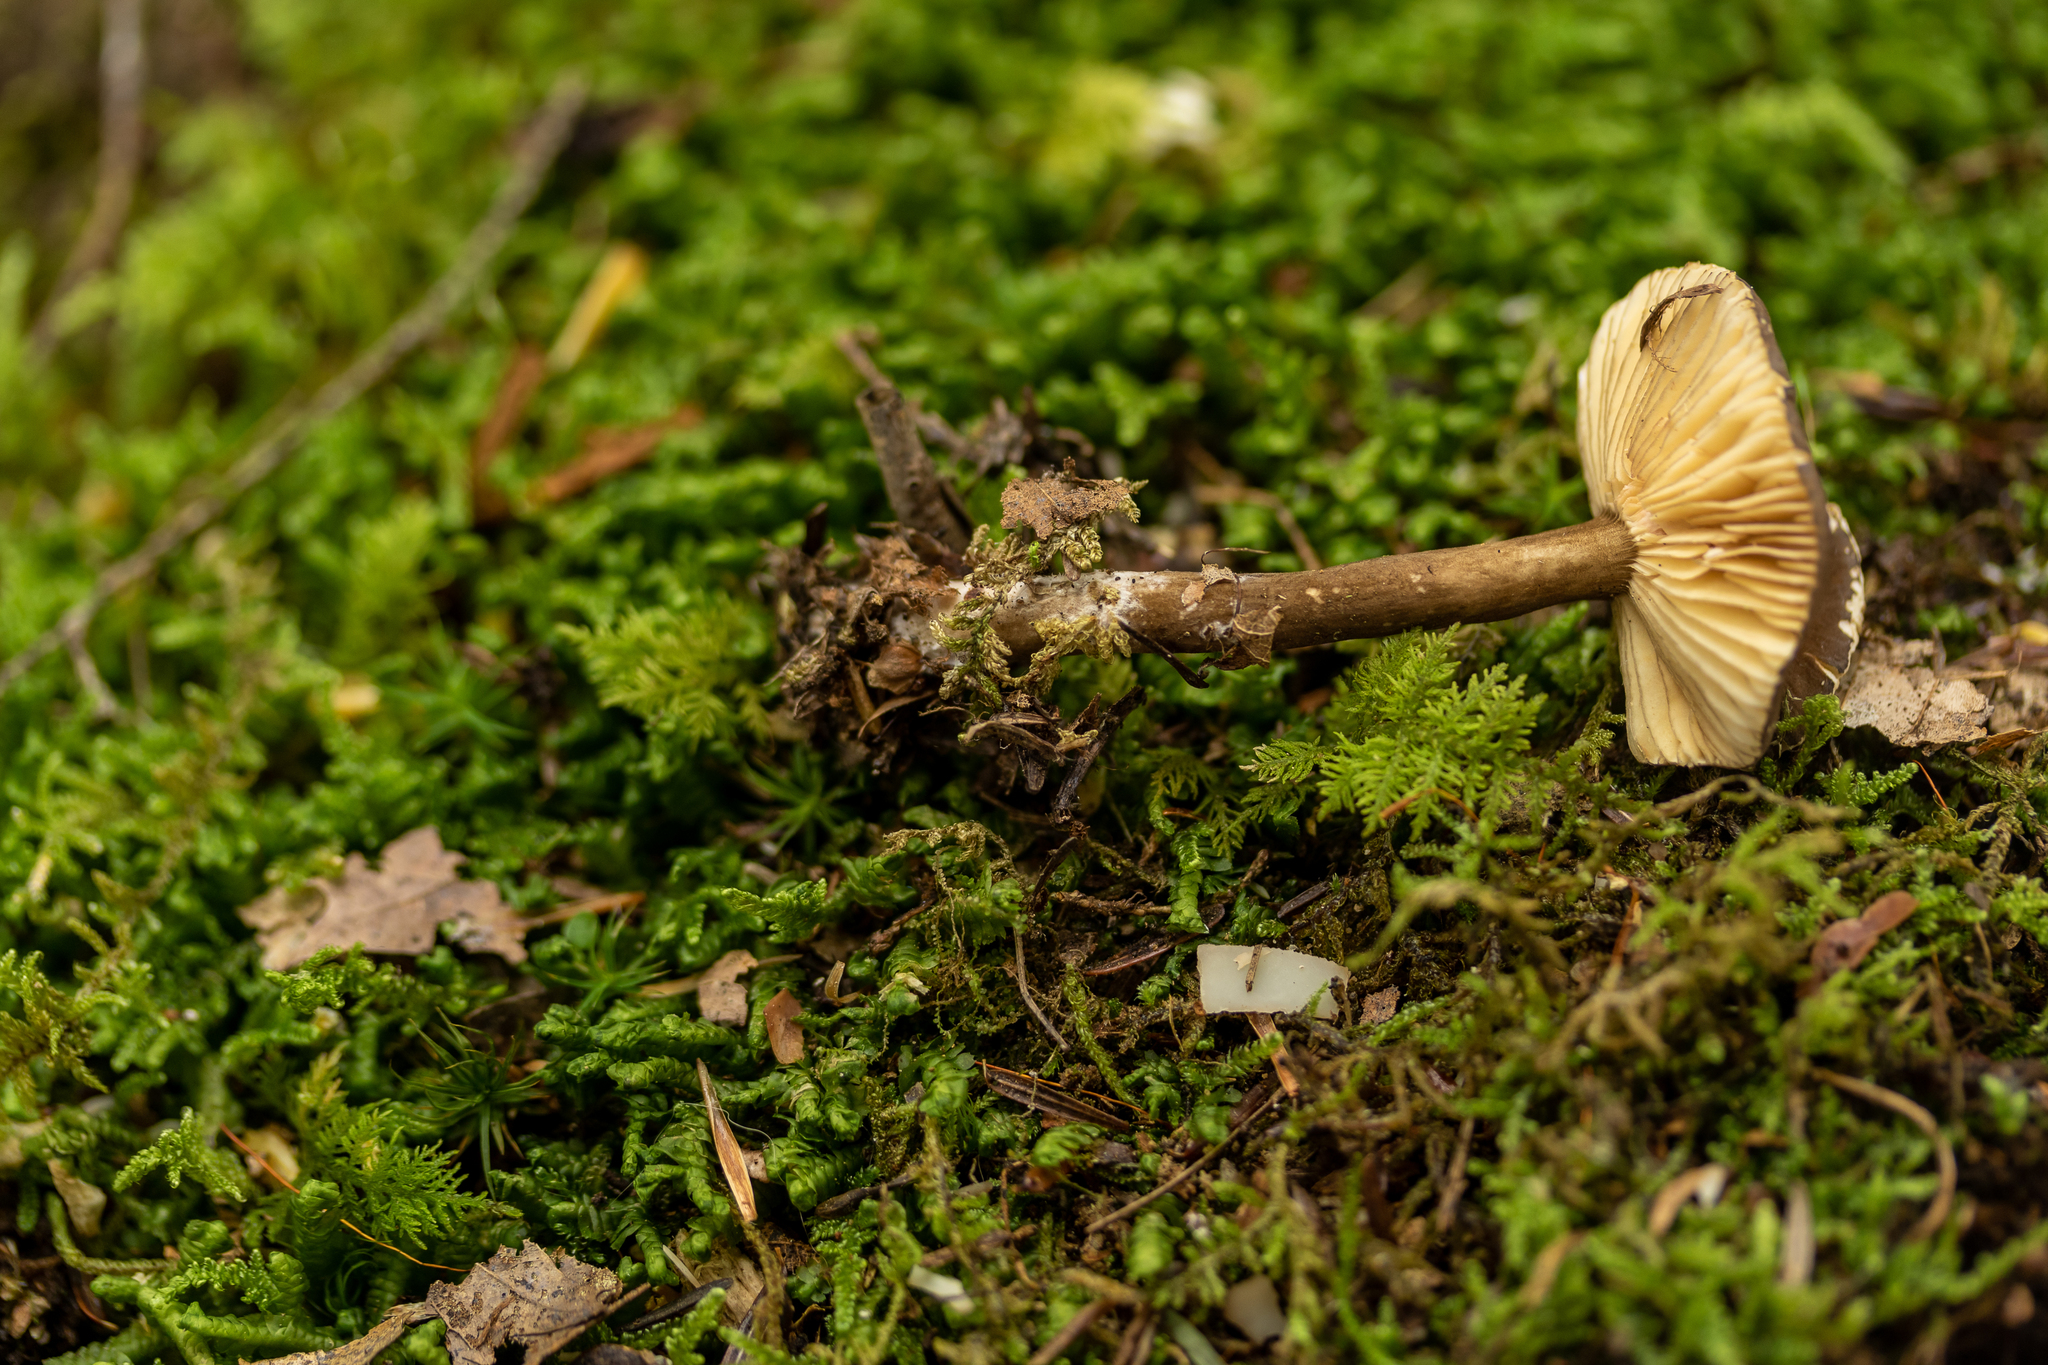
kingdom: Fungi
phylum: Basidiomycota
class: Agaricomycetes
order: Russulales
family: Russulaceae
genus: Lactarius
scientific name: Lactarius lignyotus
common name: Velvet milkcap
